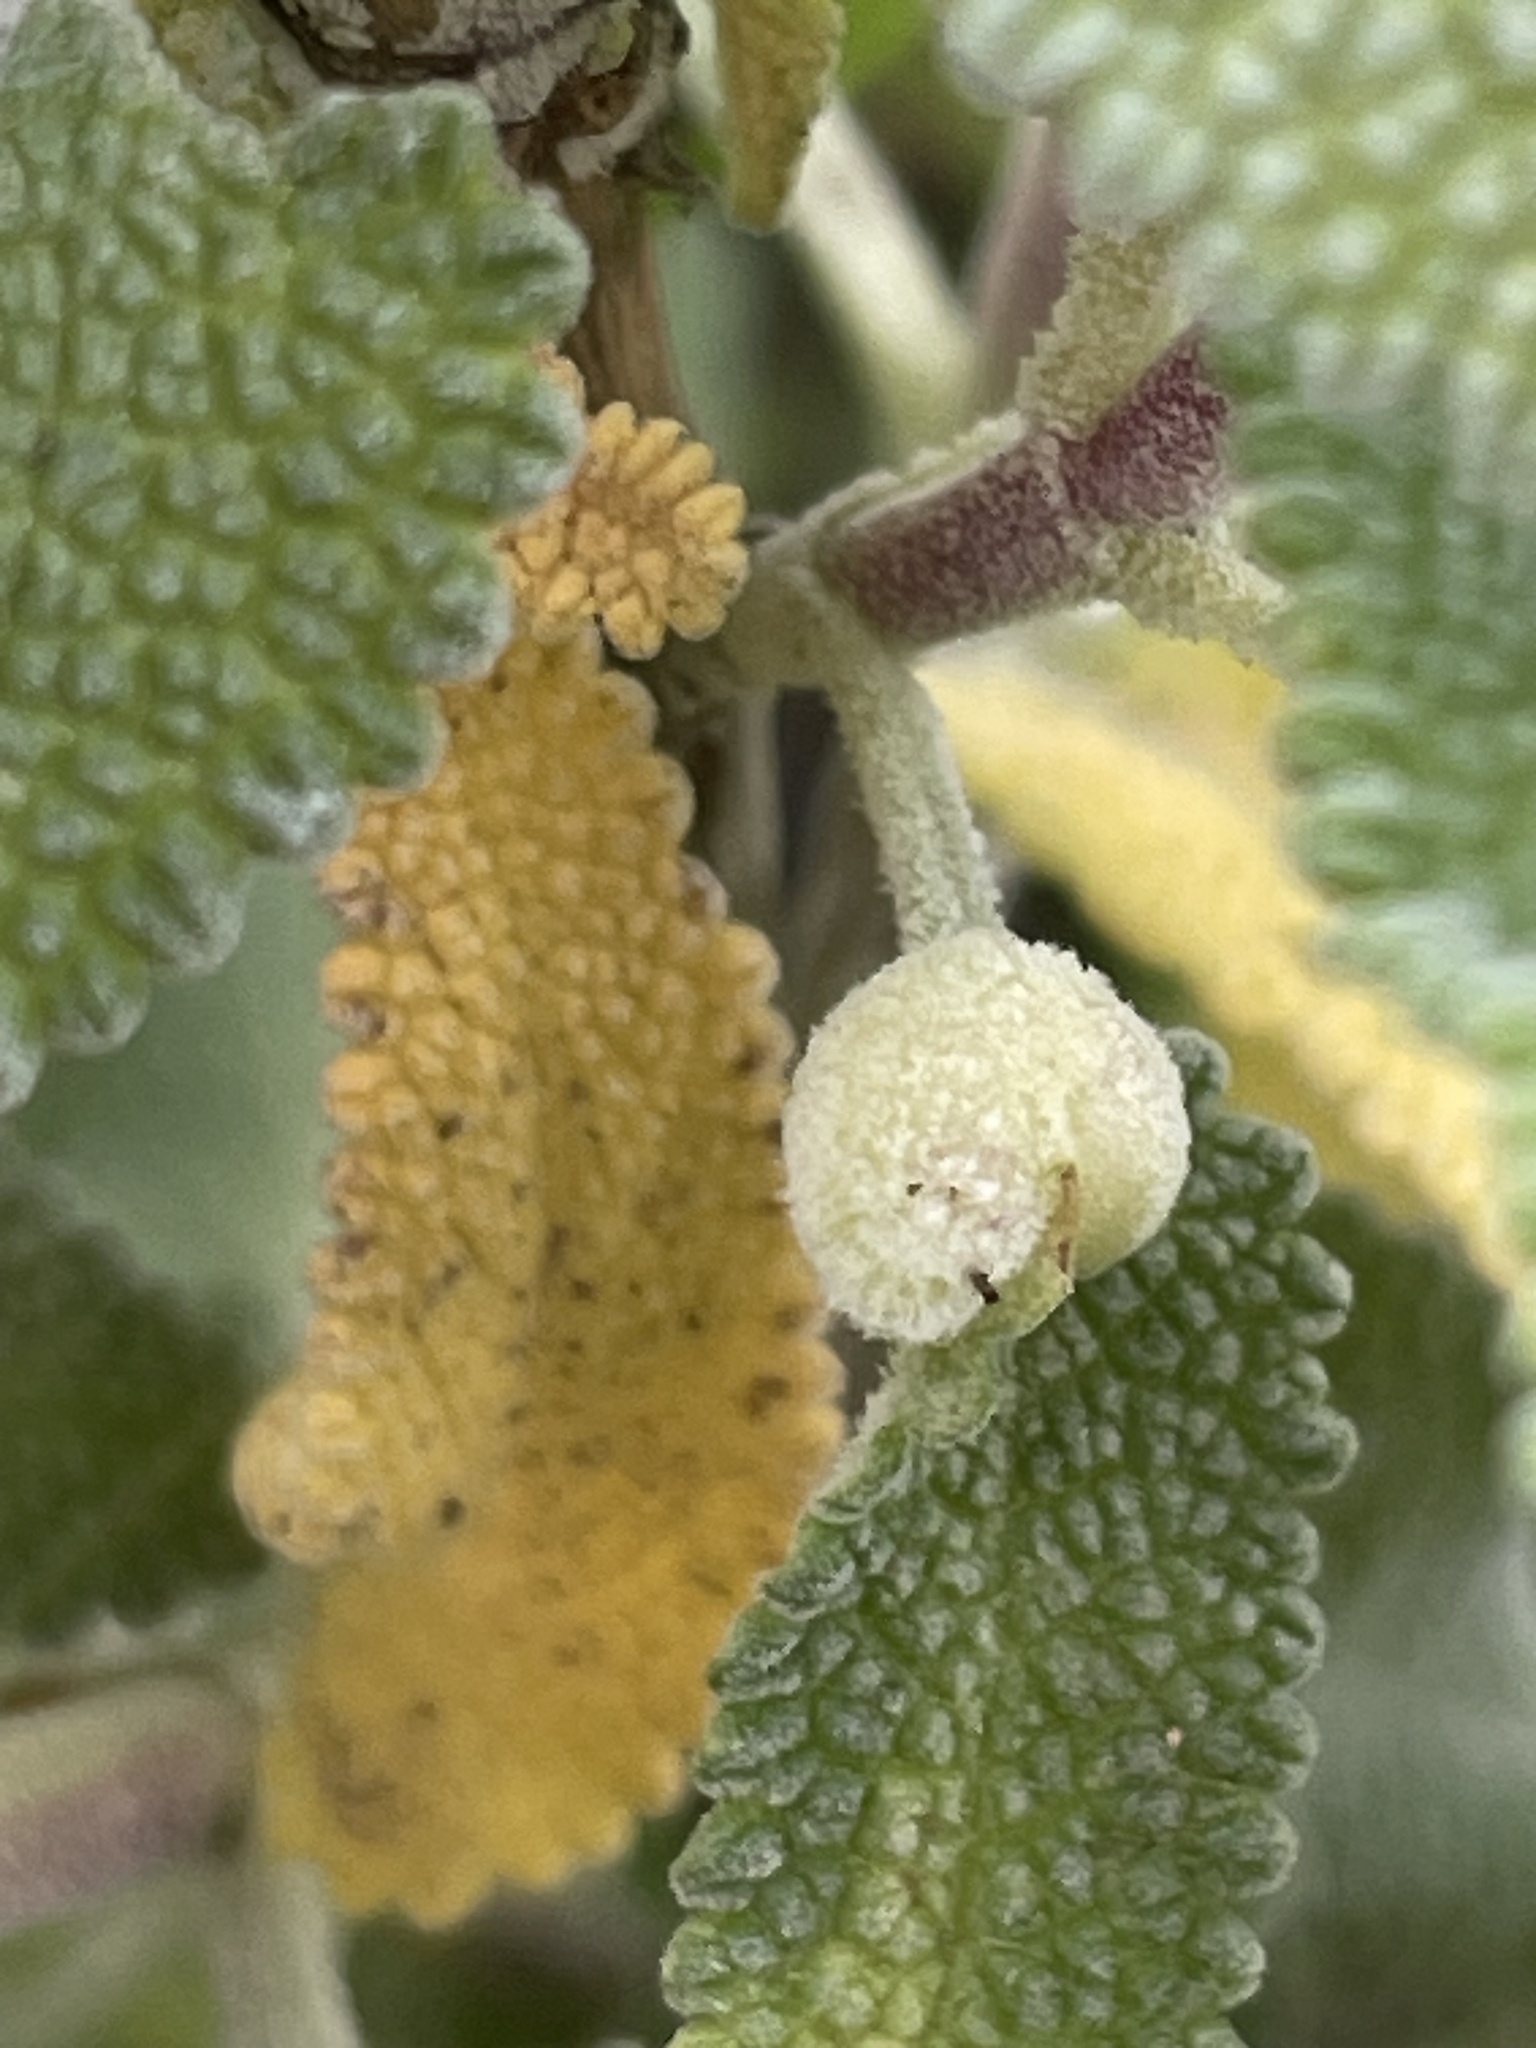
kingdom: Animalia
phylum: Arthropoda
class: Insecta
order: Diptera
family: Cecidomyiidae
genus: Rhopalomyia
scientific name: Rhopalomyia audibertiae
